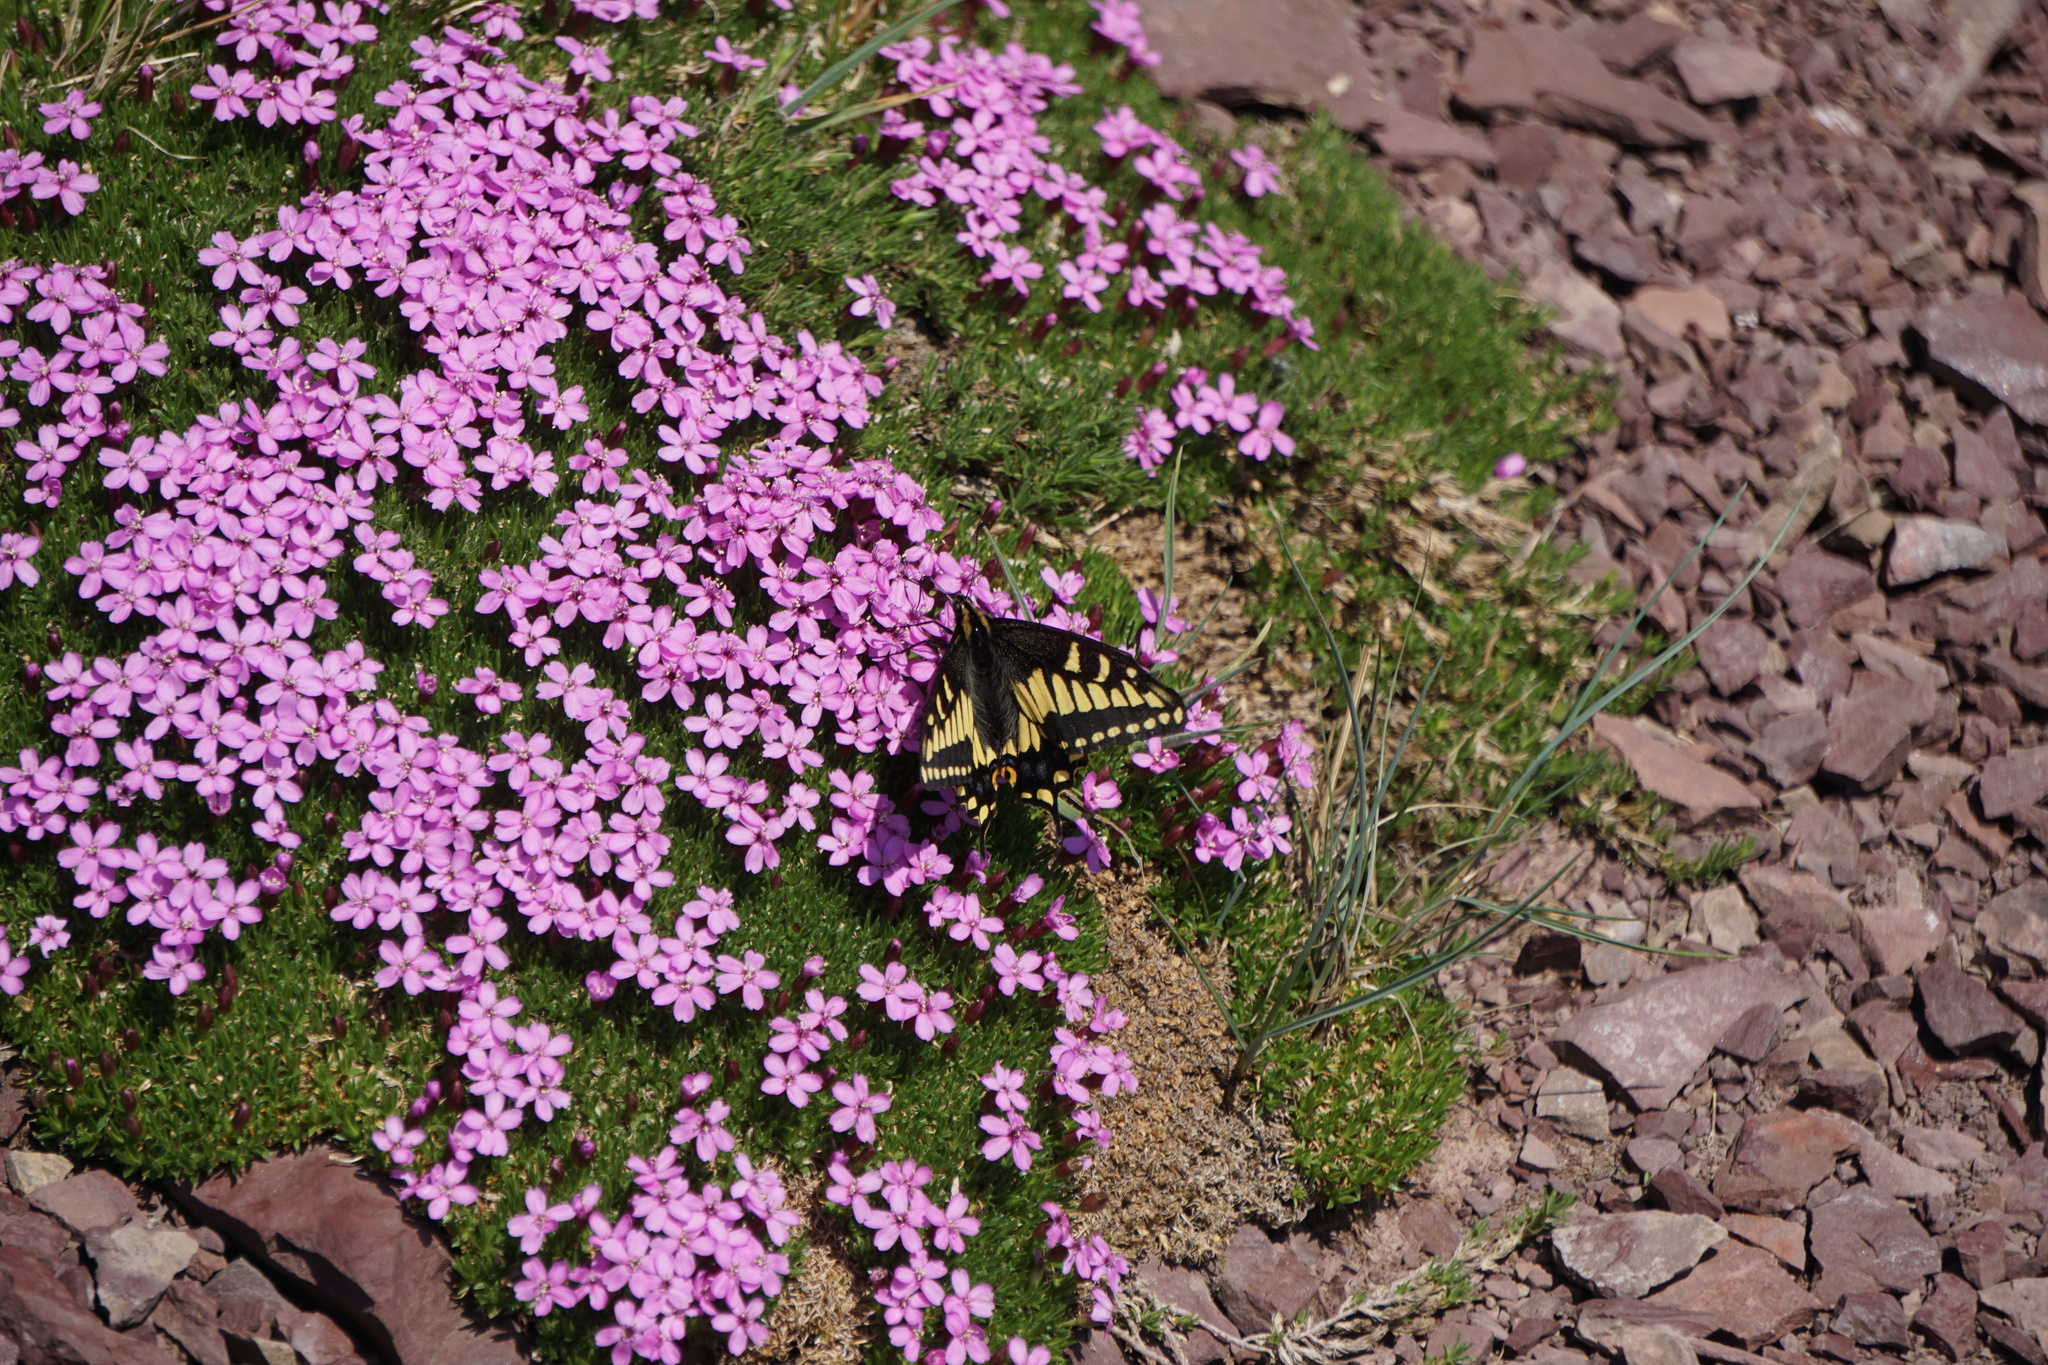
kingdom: Animalia
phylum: Arthropoda
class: Insecta
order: Lepidoptera
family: Papilionidae
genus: Papilio
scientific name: Papilio zelicaon
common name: Anise swallowtail
